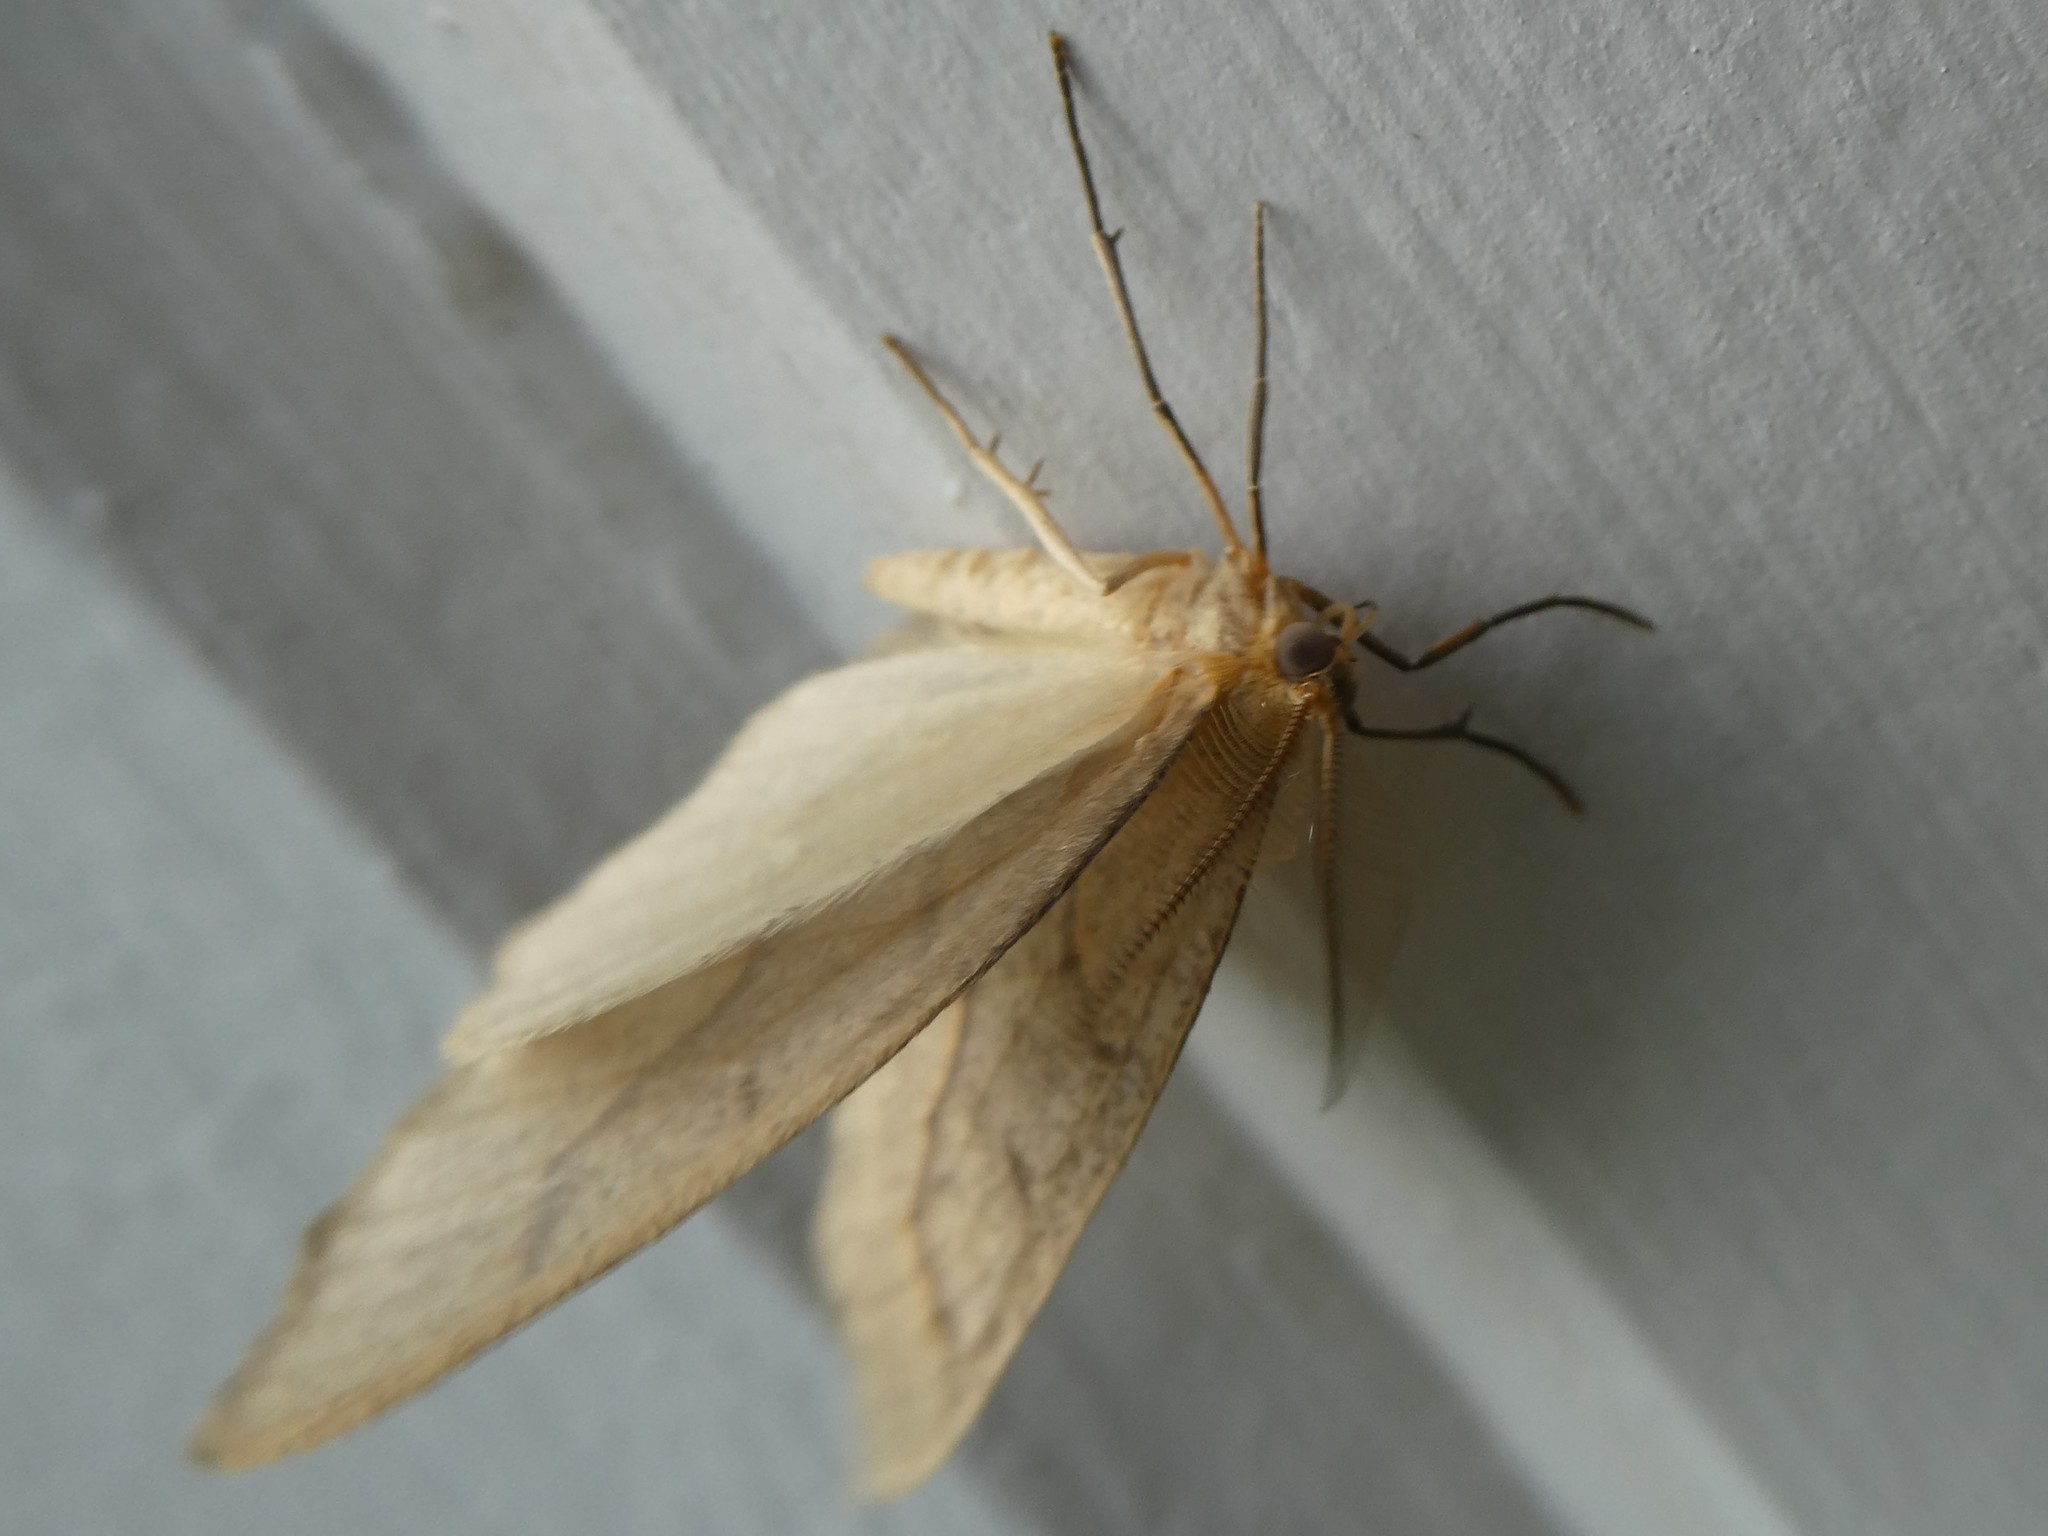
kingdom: Animalia
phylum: Arthropoda
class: Insecta
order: Lepidoptera
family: Geometridae
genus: Lambdina
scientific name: Lambdina fiscellaria
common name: Hemlock looper
